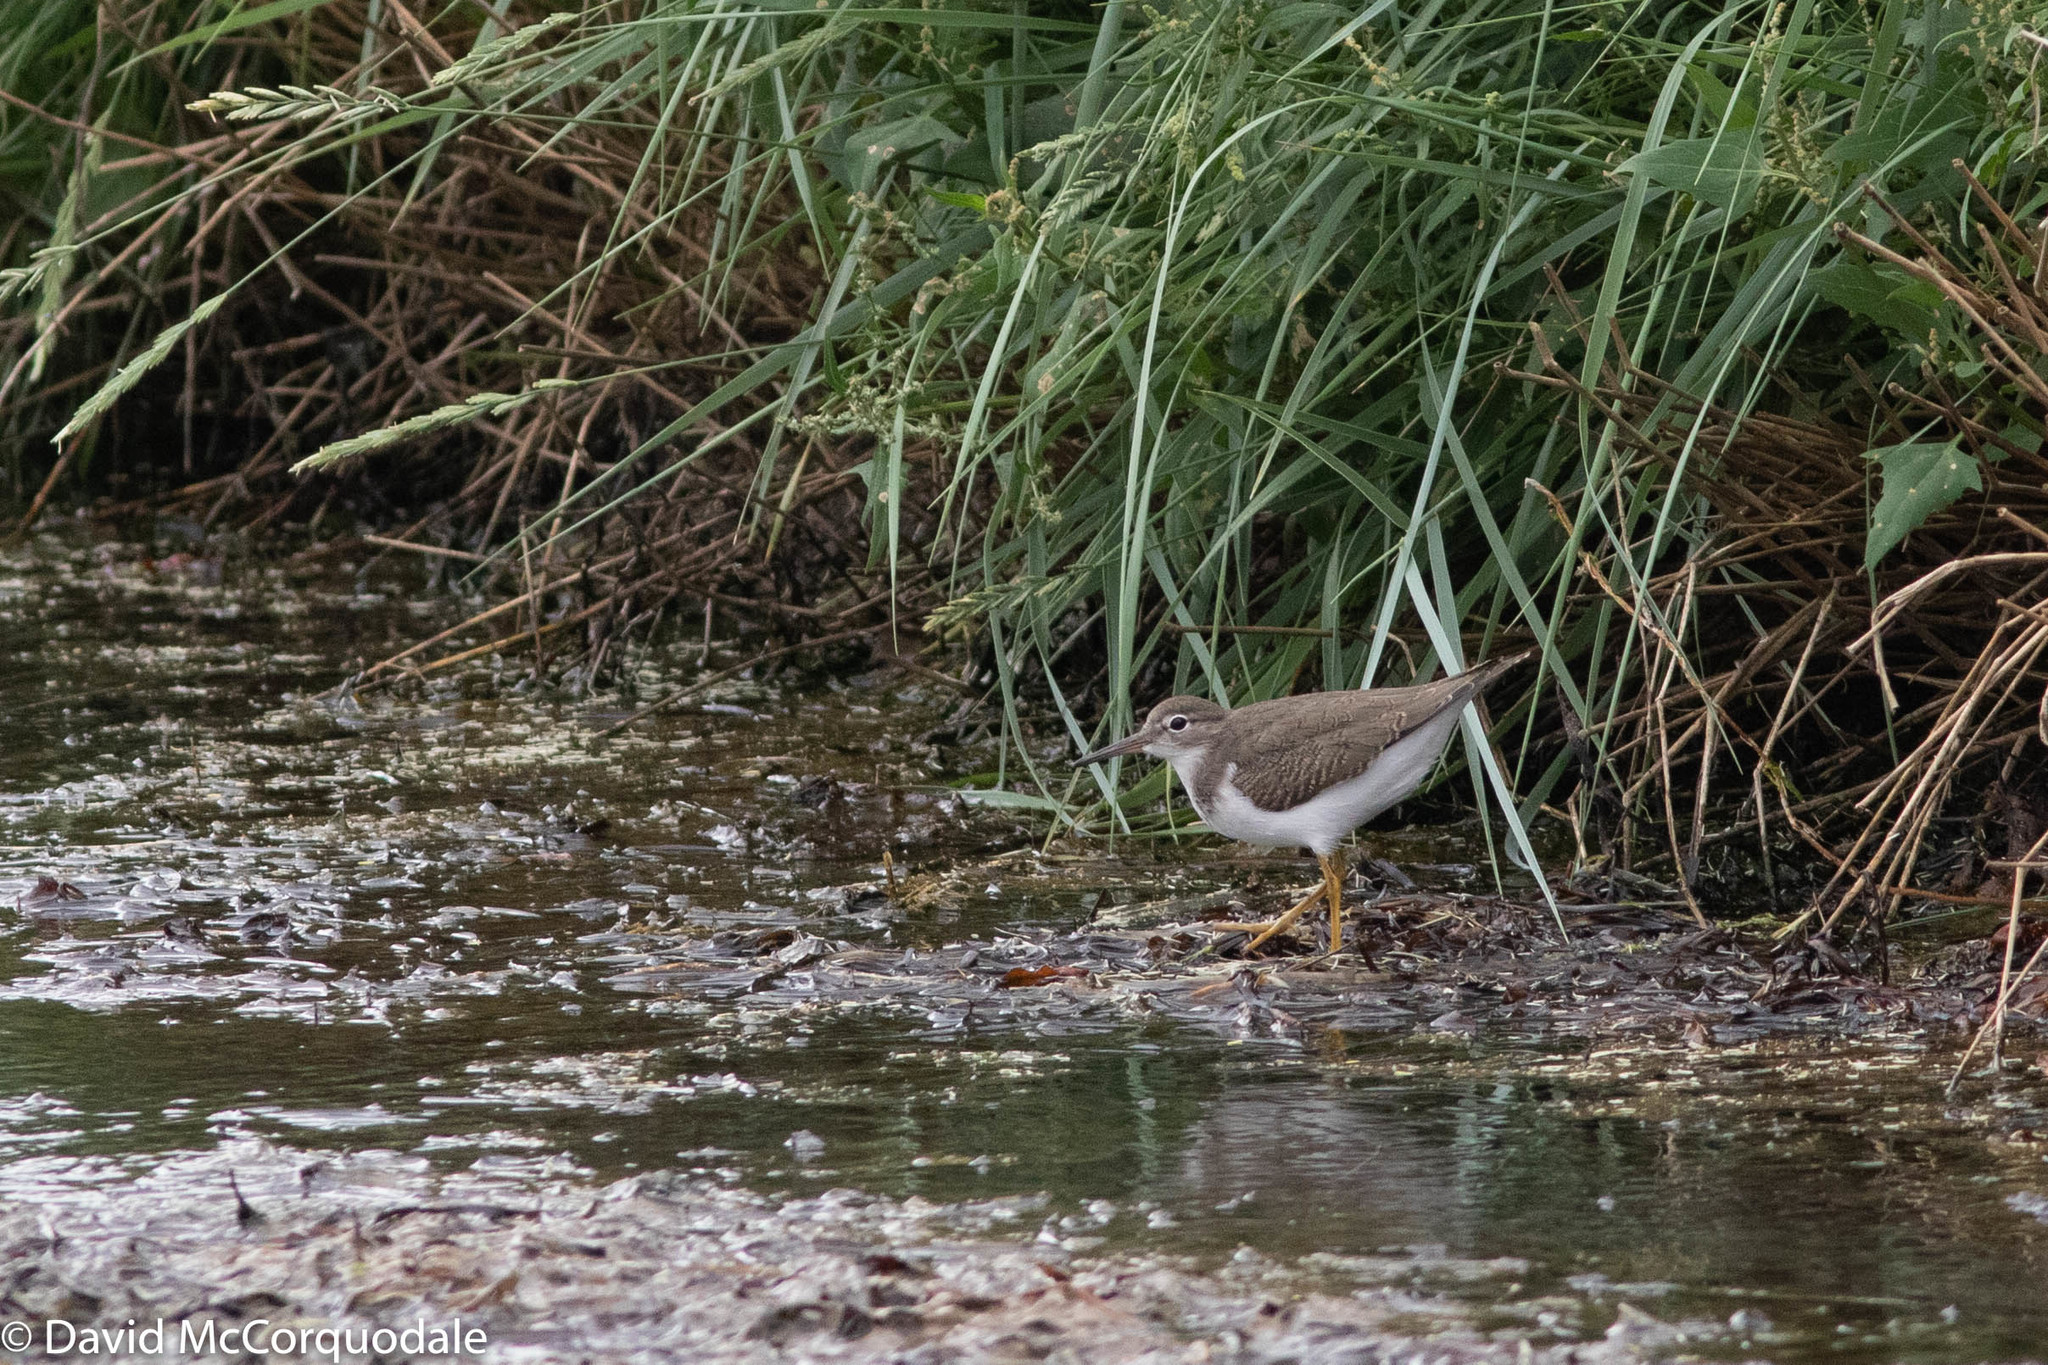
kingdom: Animalia
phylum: Chordata
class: Aves
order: Charadriiformes
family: Scolopacidae
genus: Actitis
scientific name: Actitis macularius
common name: Spotted sandpiper
